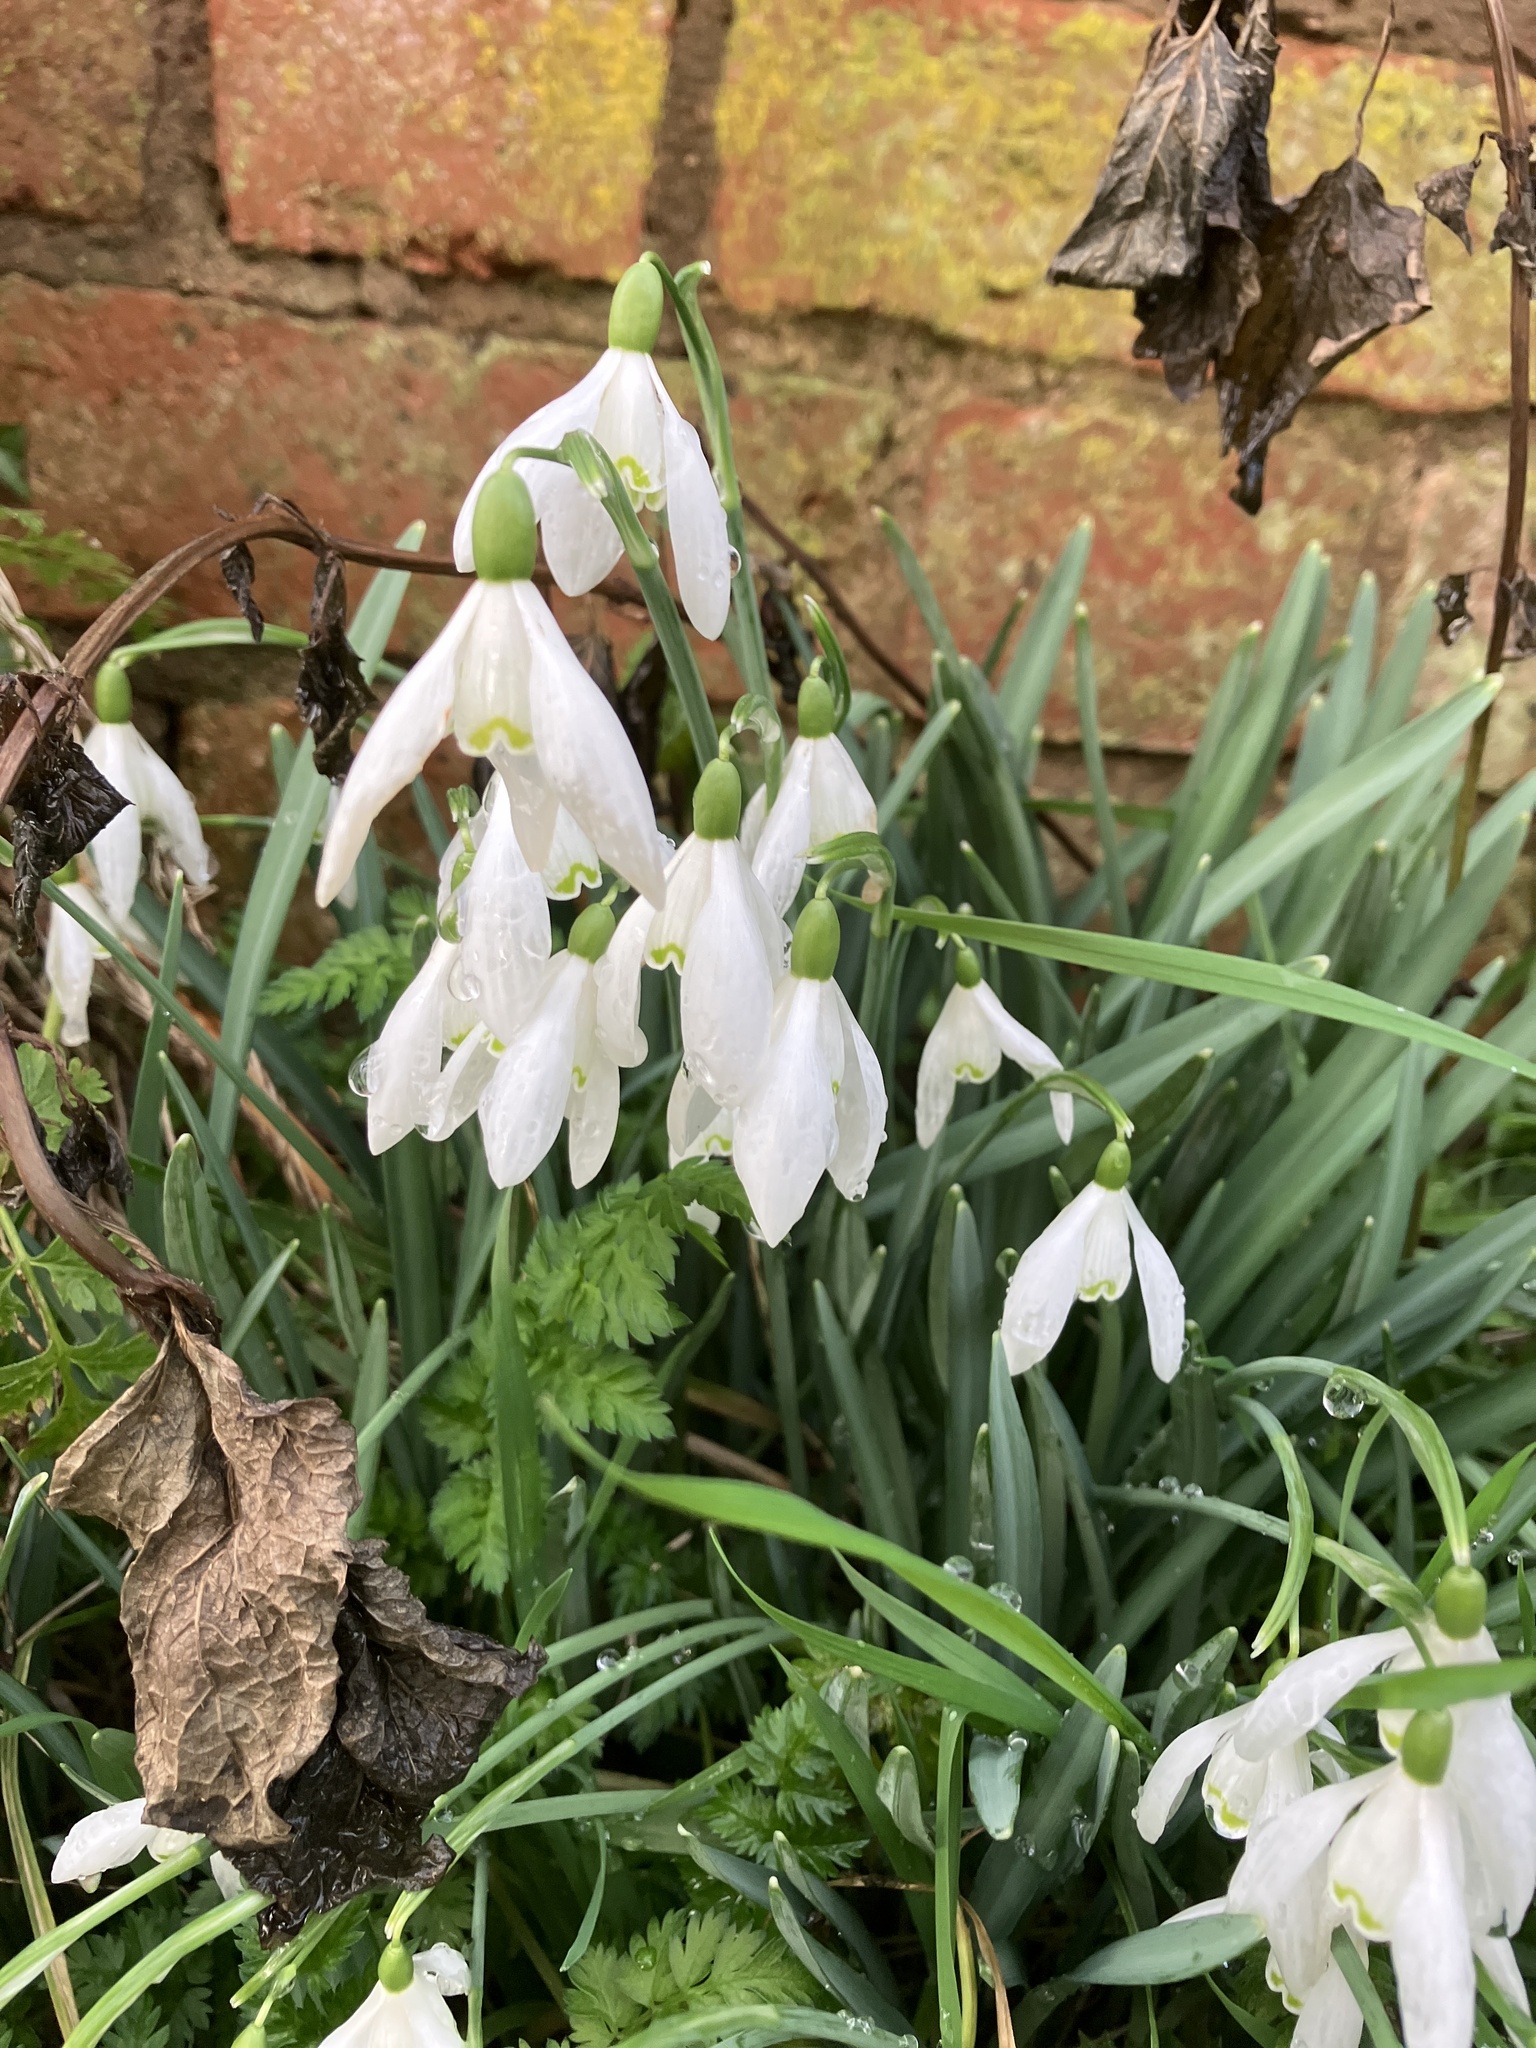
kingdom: Plantae
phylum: Tracheophyta
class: Liliopsida
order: Asparagales
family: Amaryllidaceae
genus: Galanthus
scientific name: Galanthus nivalis
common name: Snowdrop
